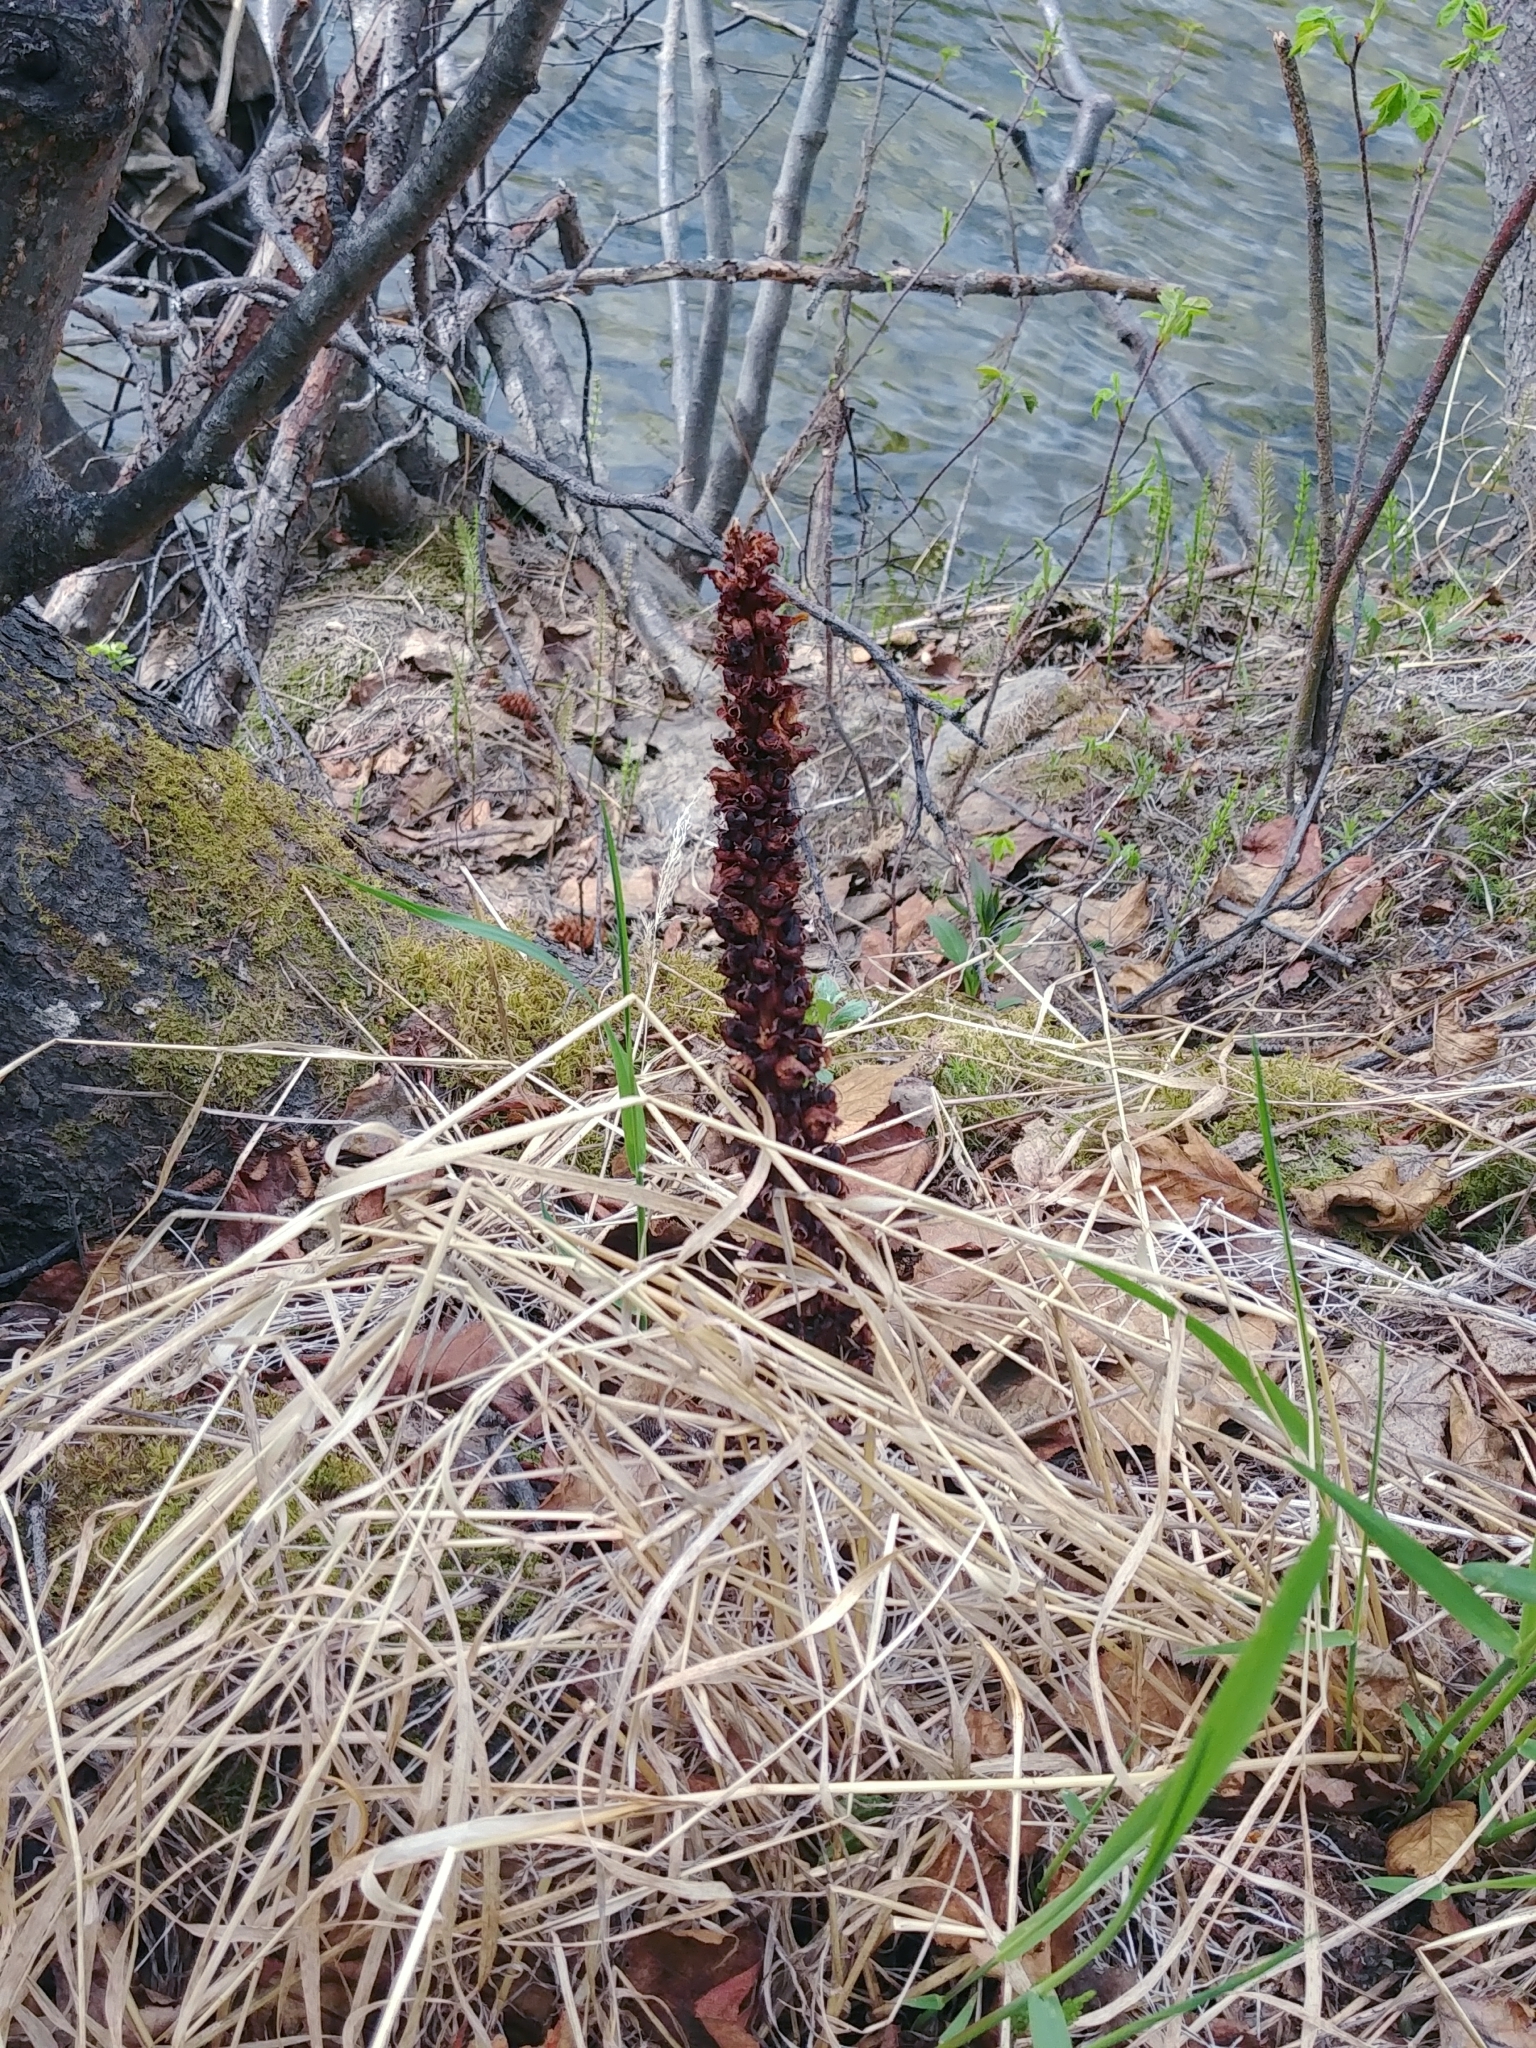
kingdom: Plantae
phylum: Tracheophyta
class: Magnoliopsida
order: Lamiales
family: Orobanchaceae
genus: Boschniakia
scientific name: Boschniakia rossica
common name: Poque
